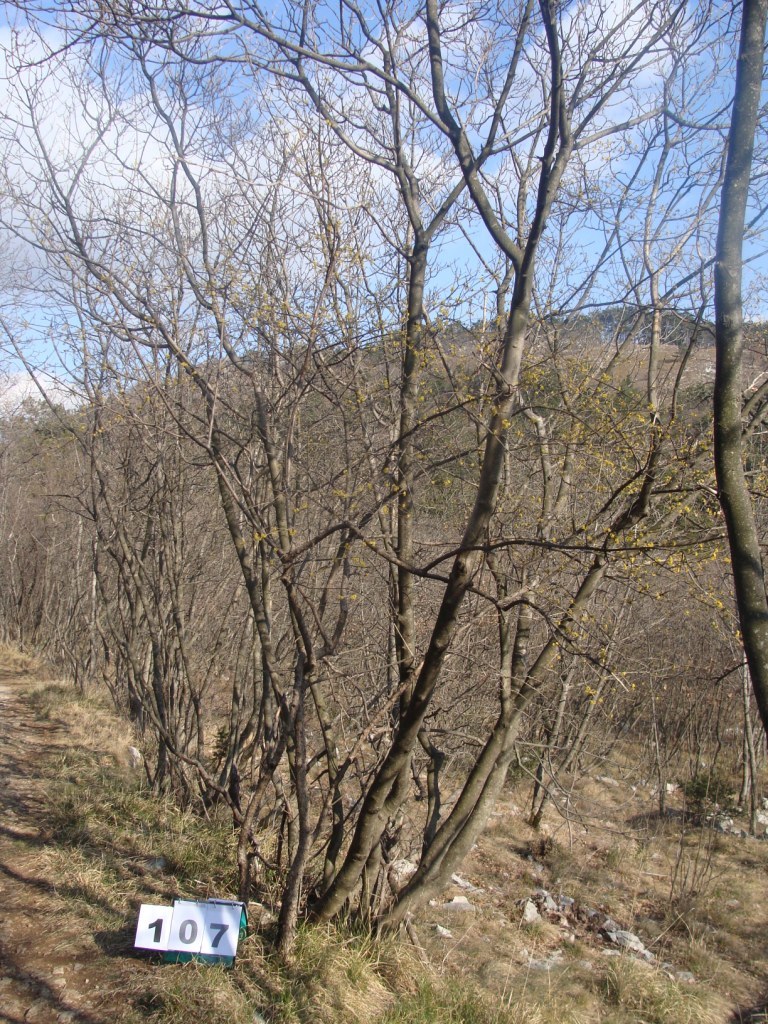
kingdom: Plantae
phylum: Tracheophyta
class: Magnoliopsida
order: Cornales
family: Cornaceae
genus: Cornus
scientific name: Cornus mas
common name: Cornelian-cherry
